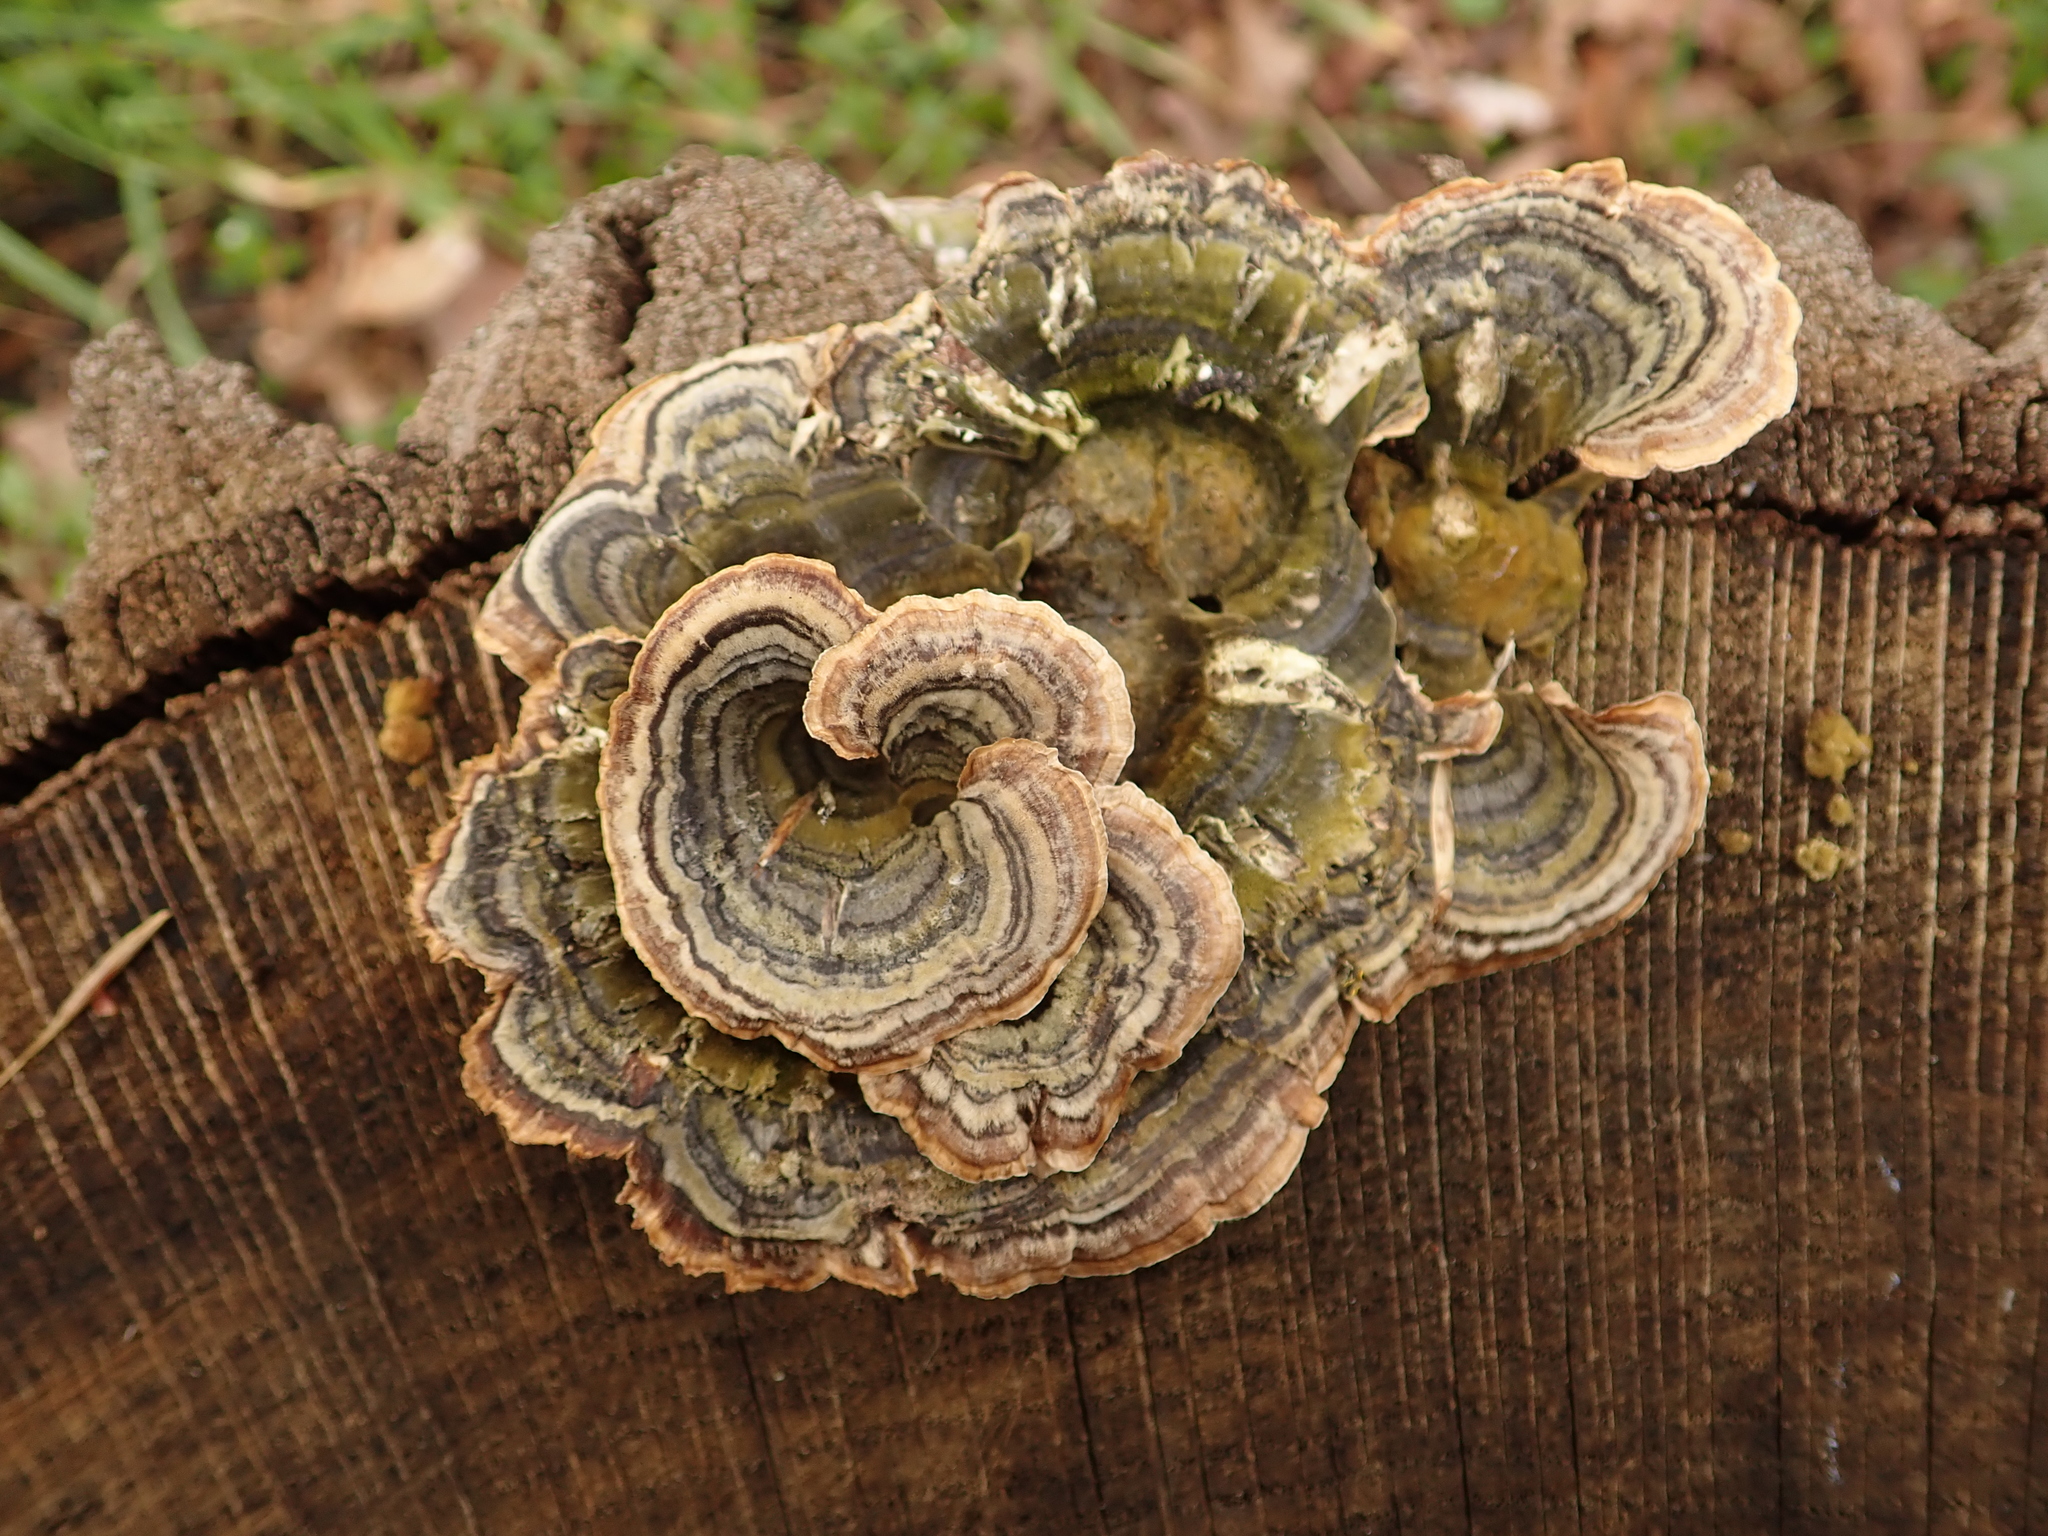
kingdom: Fungi
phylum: Basidiomycota
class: Agaricomycetes
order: Polyporales
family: Polyporaceae
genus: Trametes
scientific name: Trametes versicolor
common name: Turkeytail
